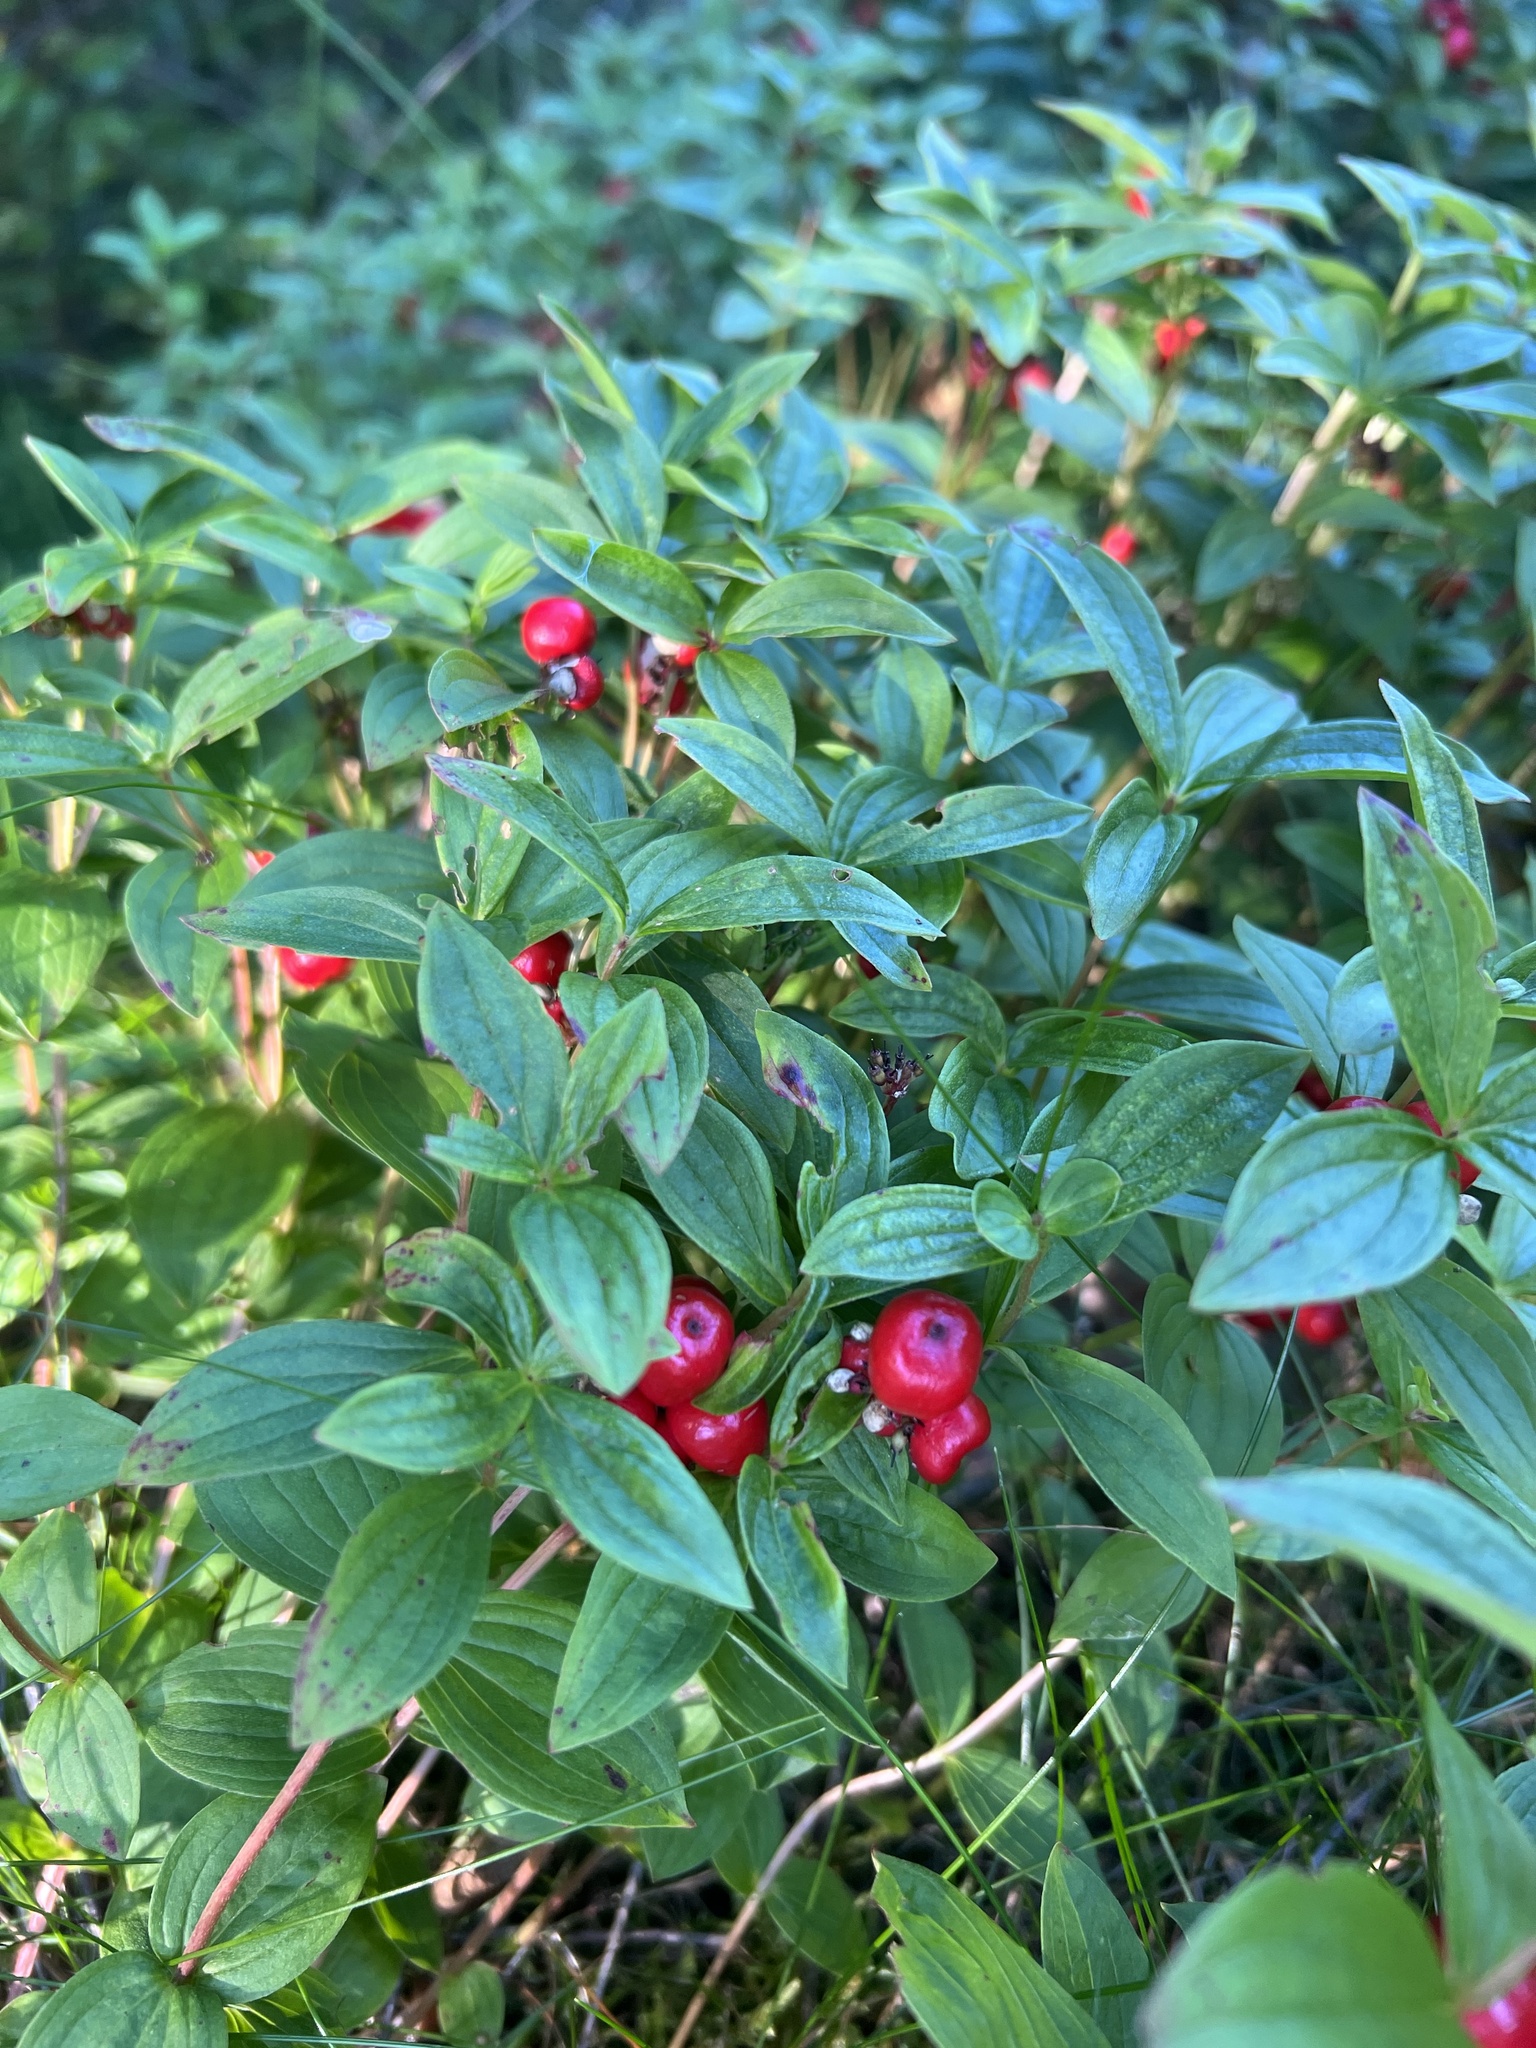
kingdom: Plantae
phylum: Tracheophyta
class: Magnoliopsida
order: Cornales
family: Cornaceae
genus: Cornus
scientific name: Cornus suecica
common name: Dwarf cornel
